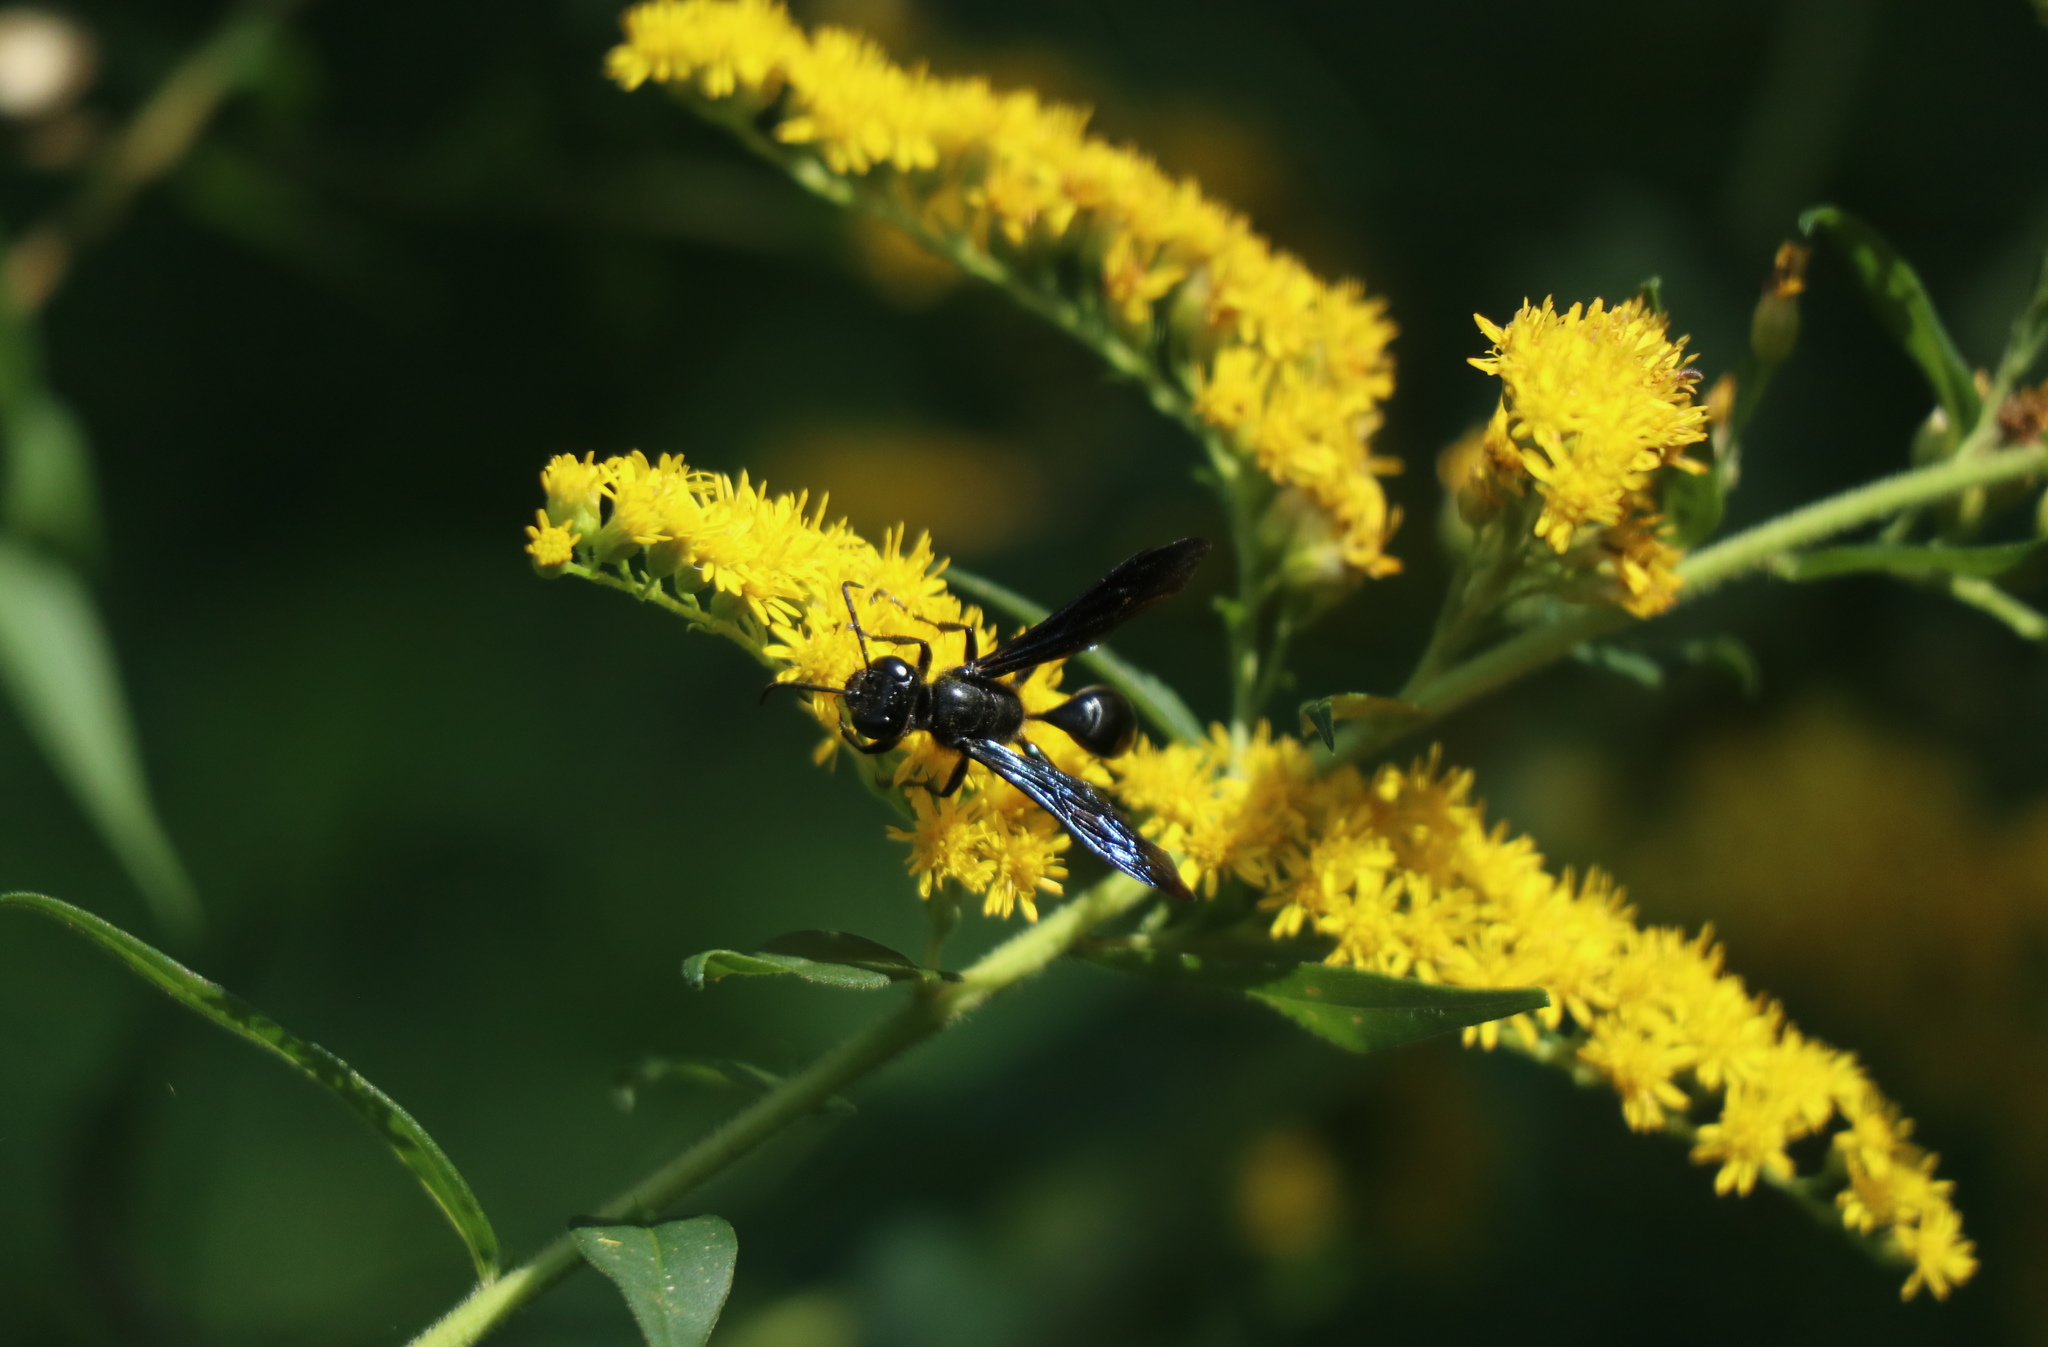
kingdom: Animalia
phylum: Arthropoda
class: Insecta
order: Hymenoptera
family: Sphecidae
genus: Eremnophila
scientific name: Eremnophila aureonotata
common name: Gold-marked thread-waisted wasp
